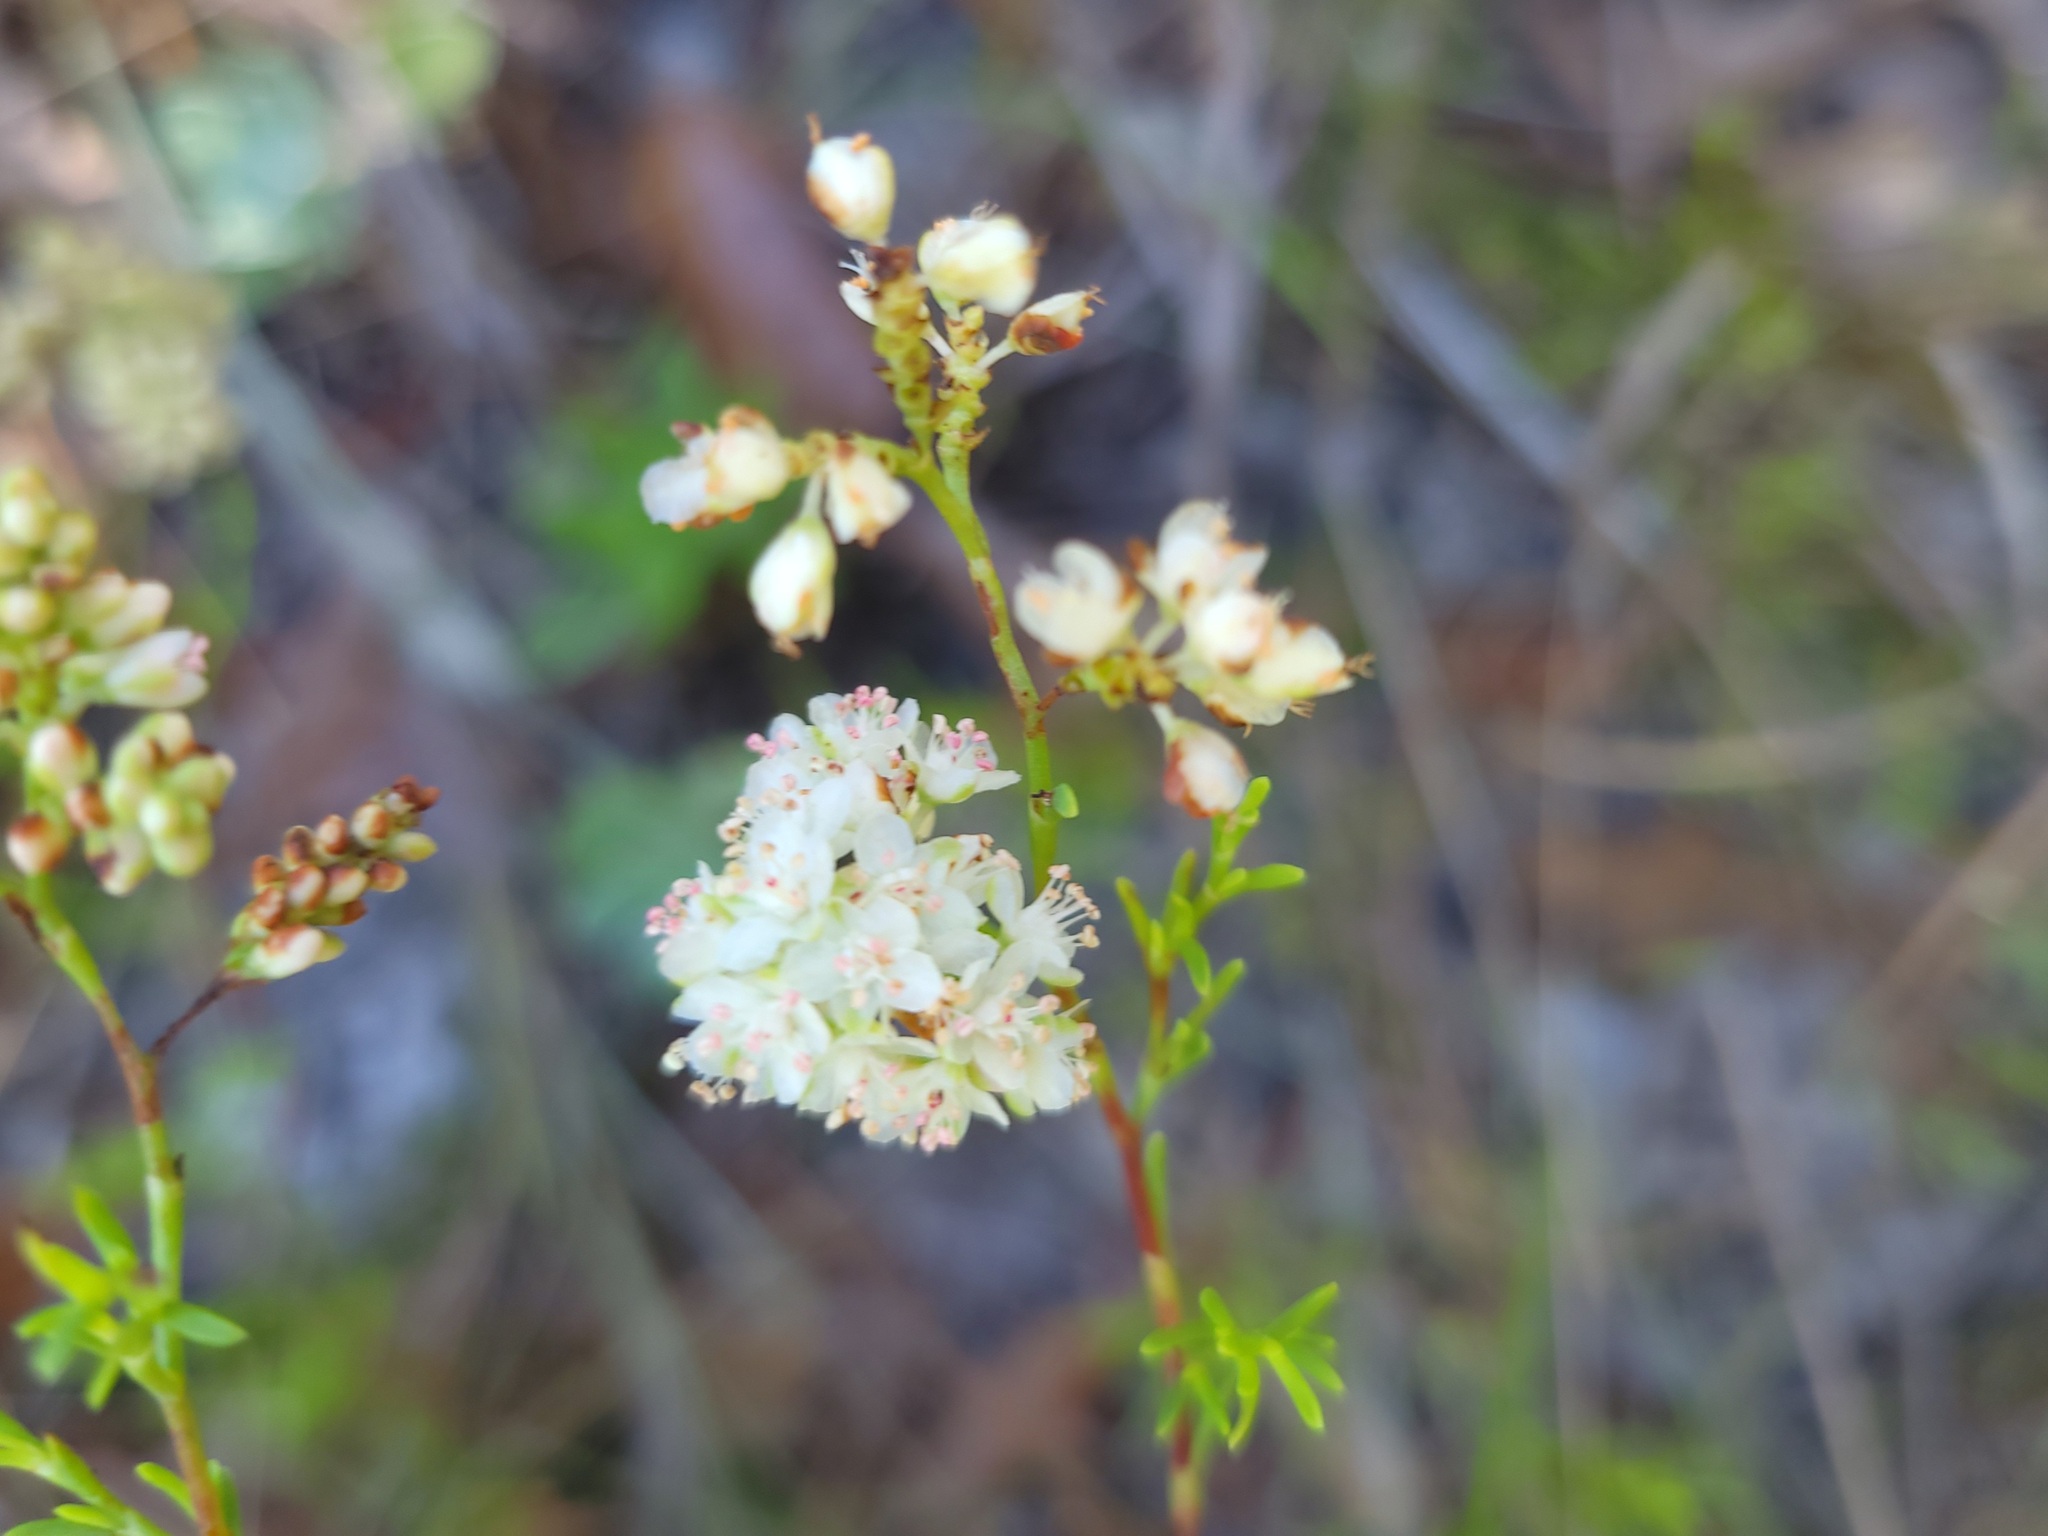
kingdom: Plantae
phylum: Tracheophyta
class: Magnoliopsida
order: Caryophyllales
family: Polygonaceae
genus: Polygonella
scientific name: Polygonella myriophylla
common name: Sandlace
